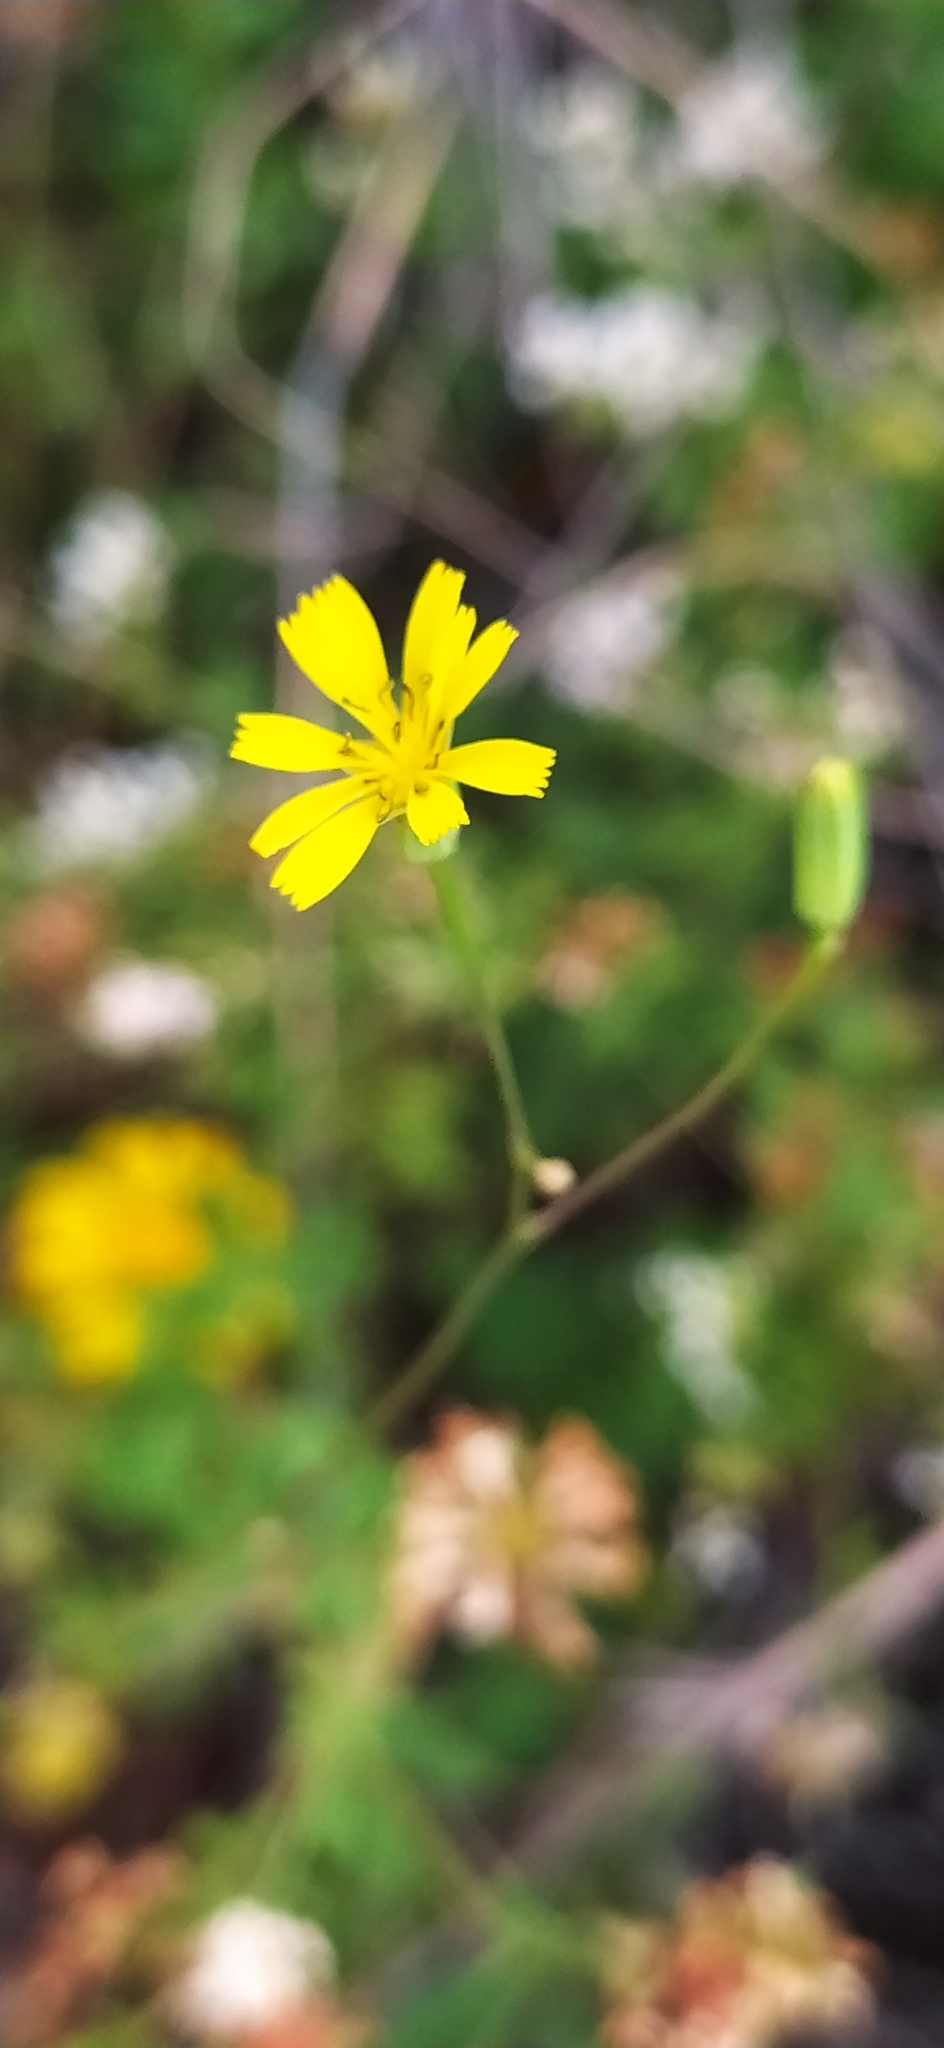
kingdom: Plantae
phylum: Tracheophyta
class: Magnoliopsida
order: Asterales
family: Asteraceae
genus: Lapsana
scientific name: Lapsana communis
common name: Nipplewort
